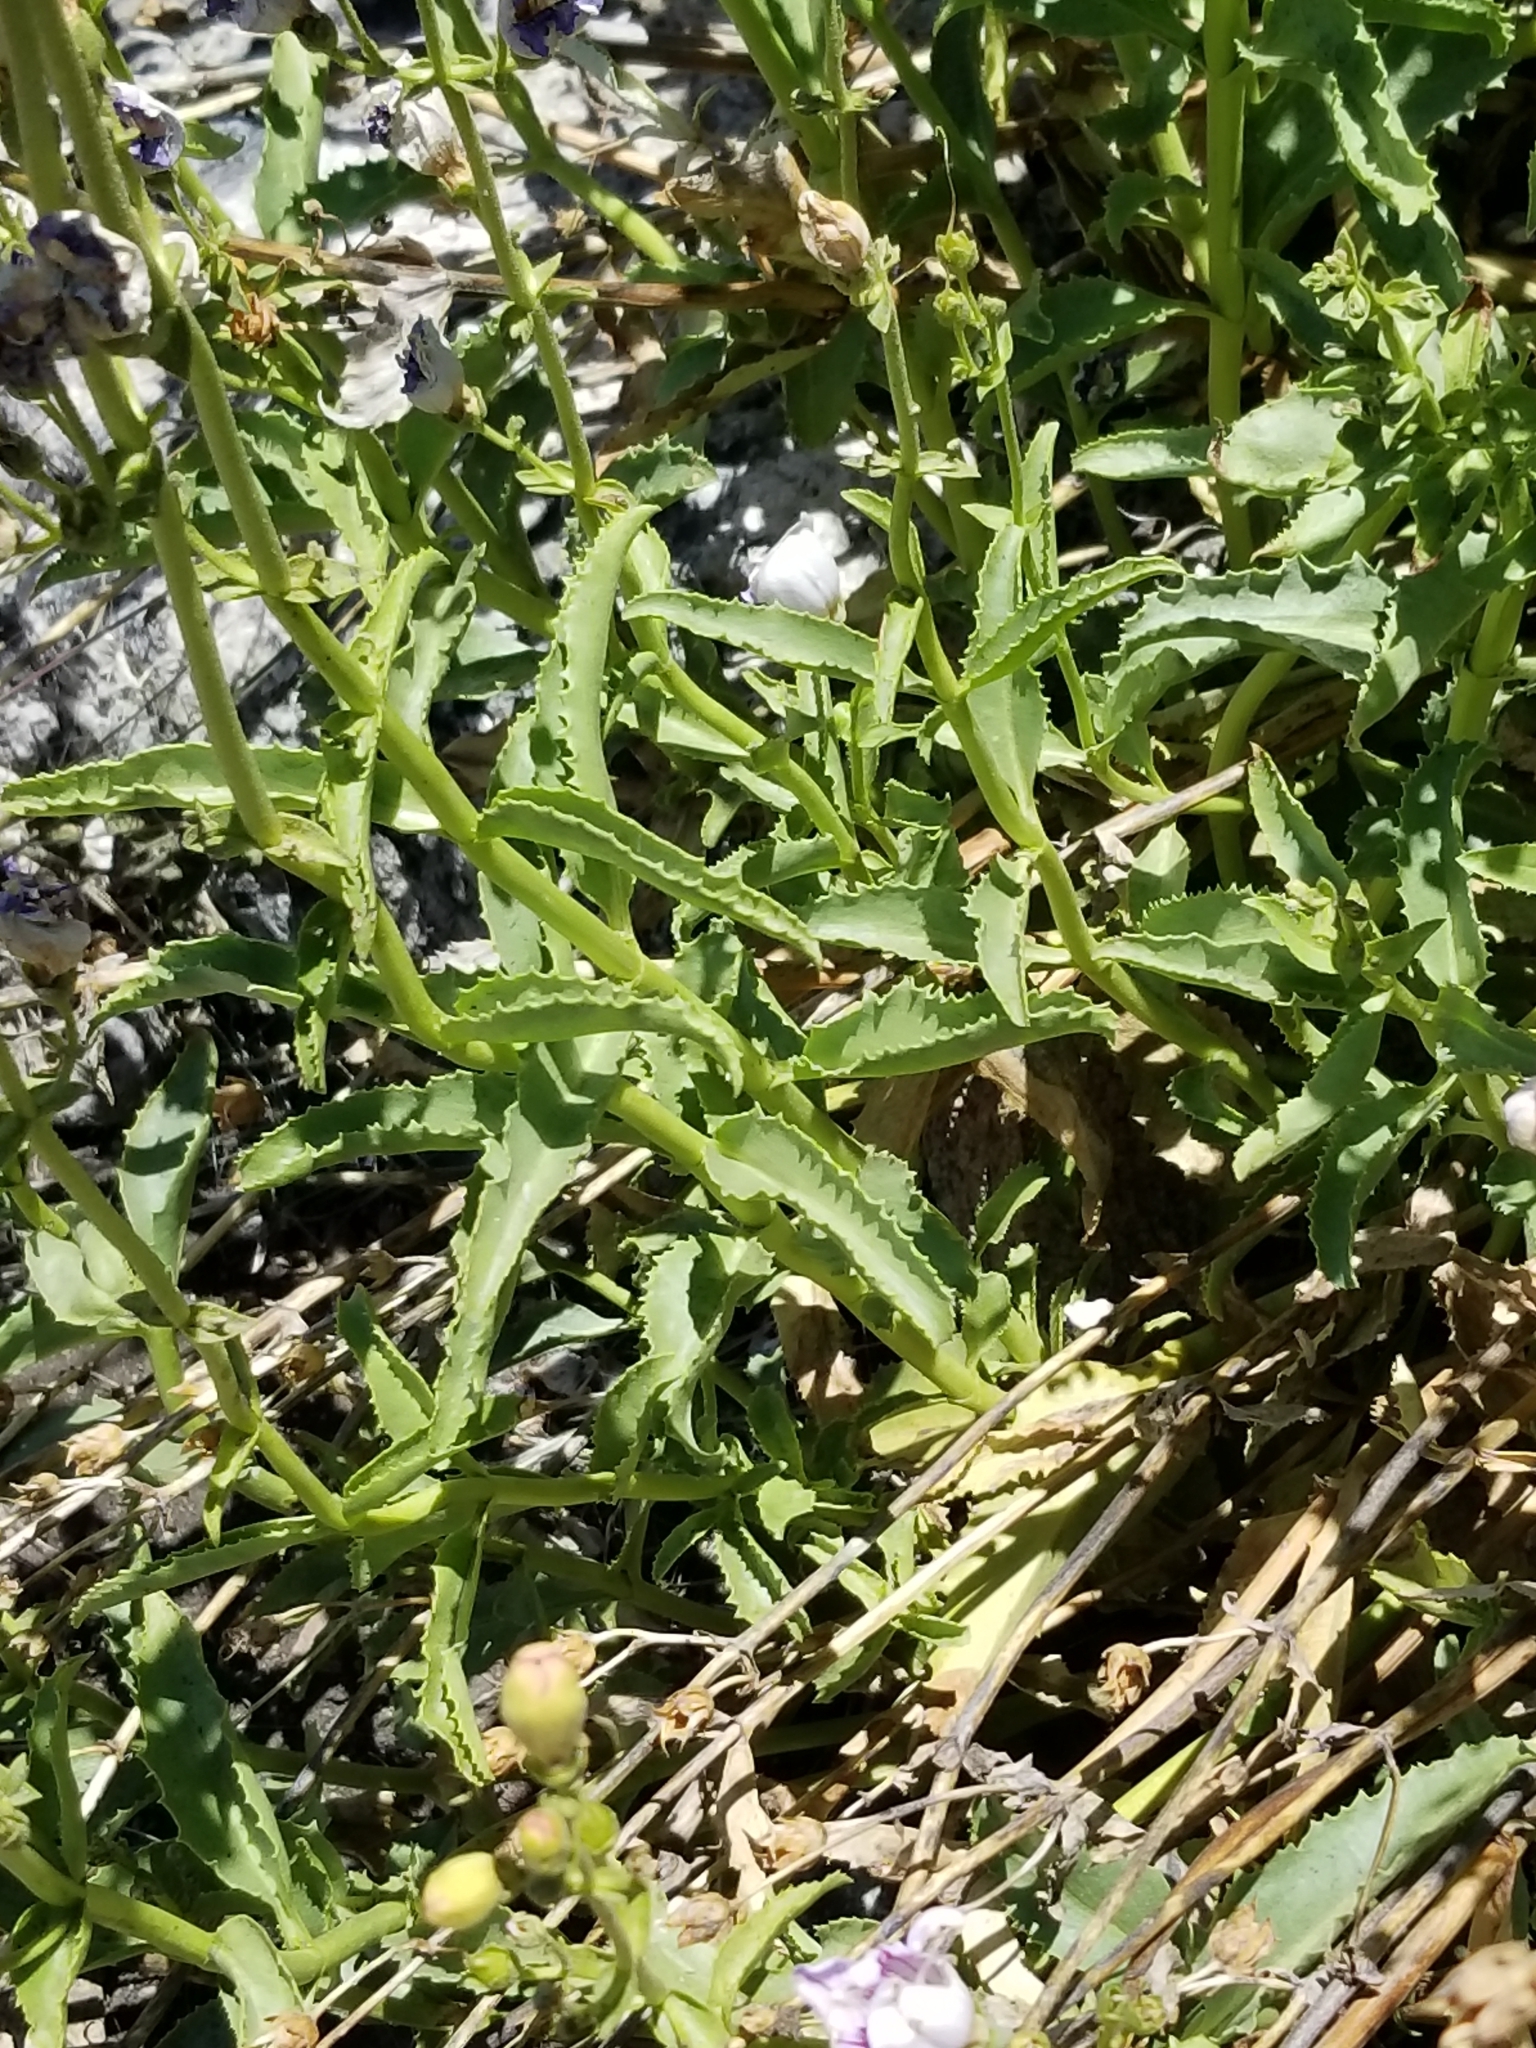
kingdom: Plantae
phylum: Tracheophyta
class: Magnoliopsida
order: Lamiales
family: Plantaginaceae
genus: Penstemon
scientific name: Penstemon grinnellii
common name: Grinnell's beardtongue
